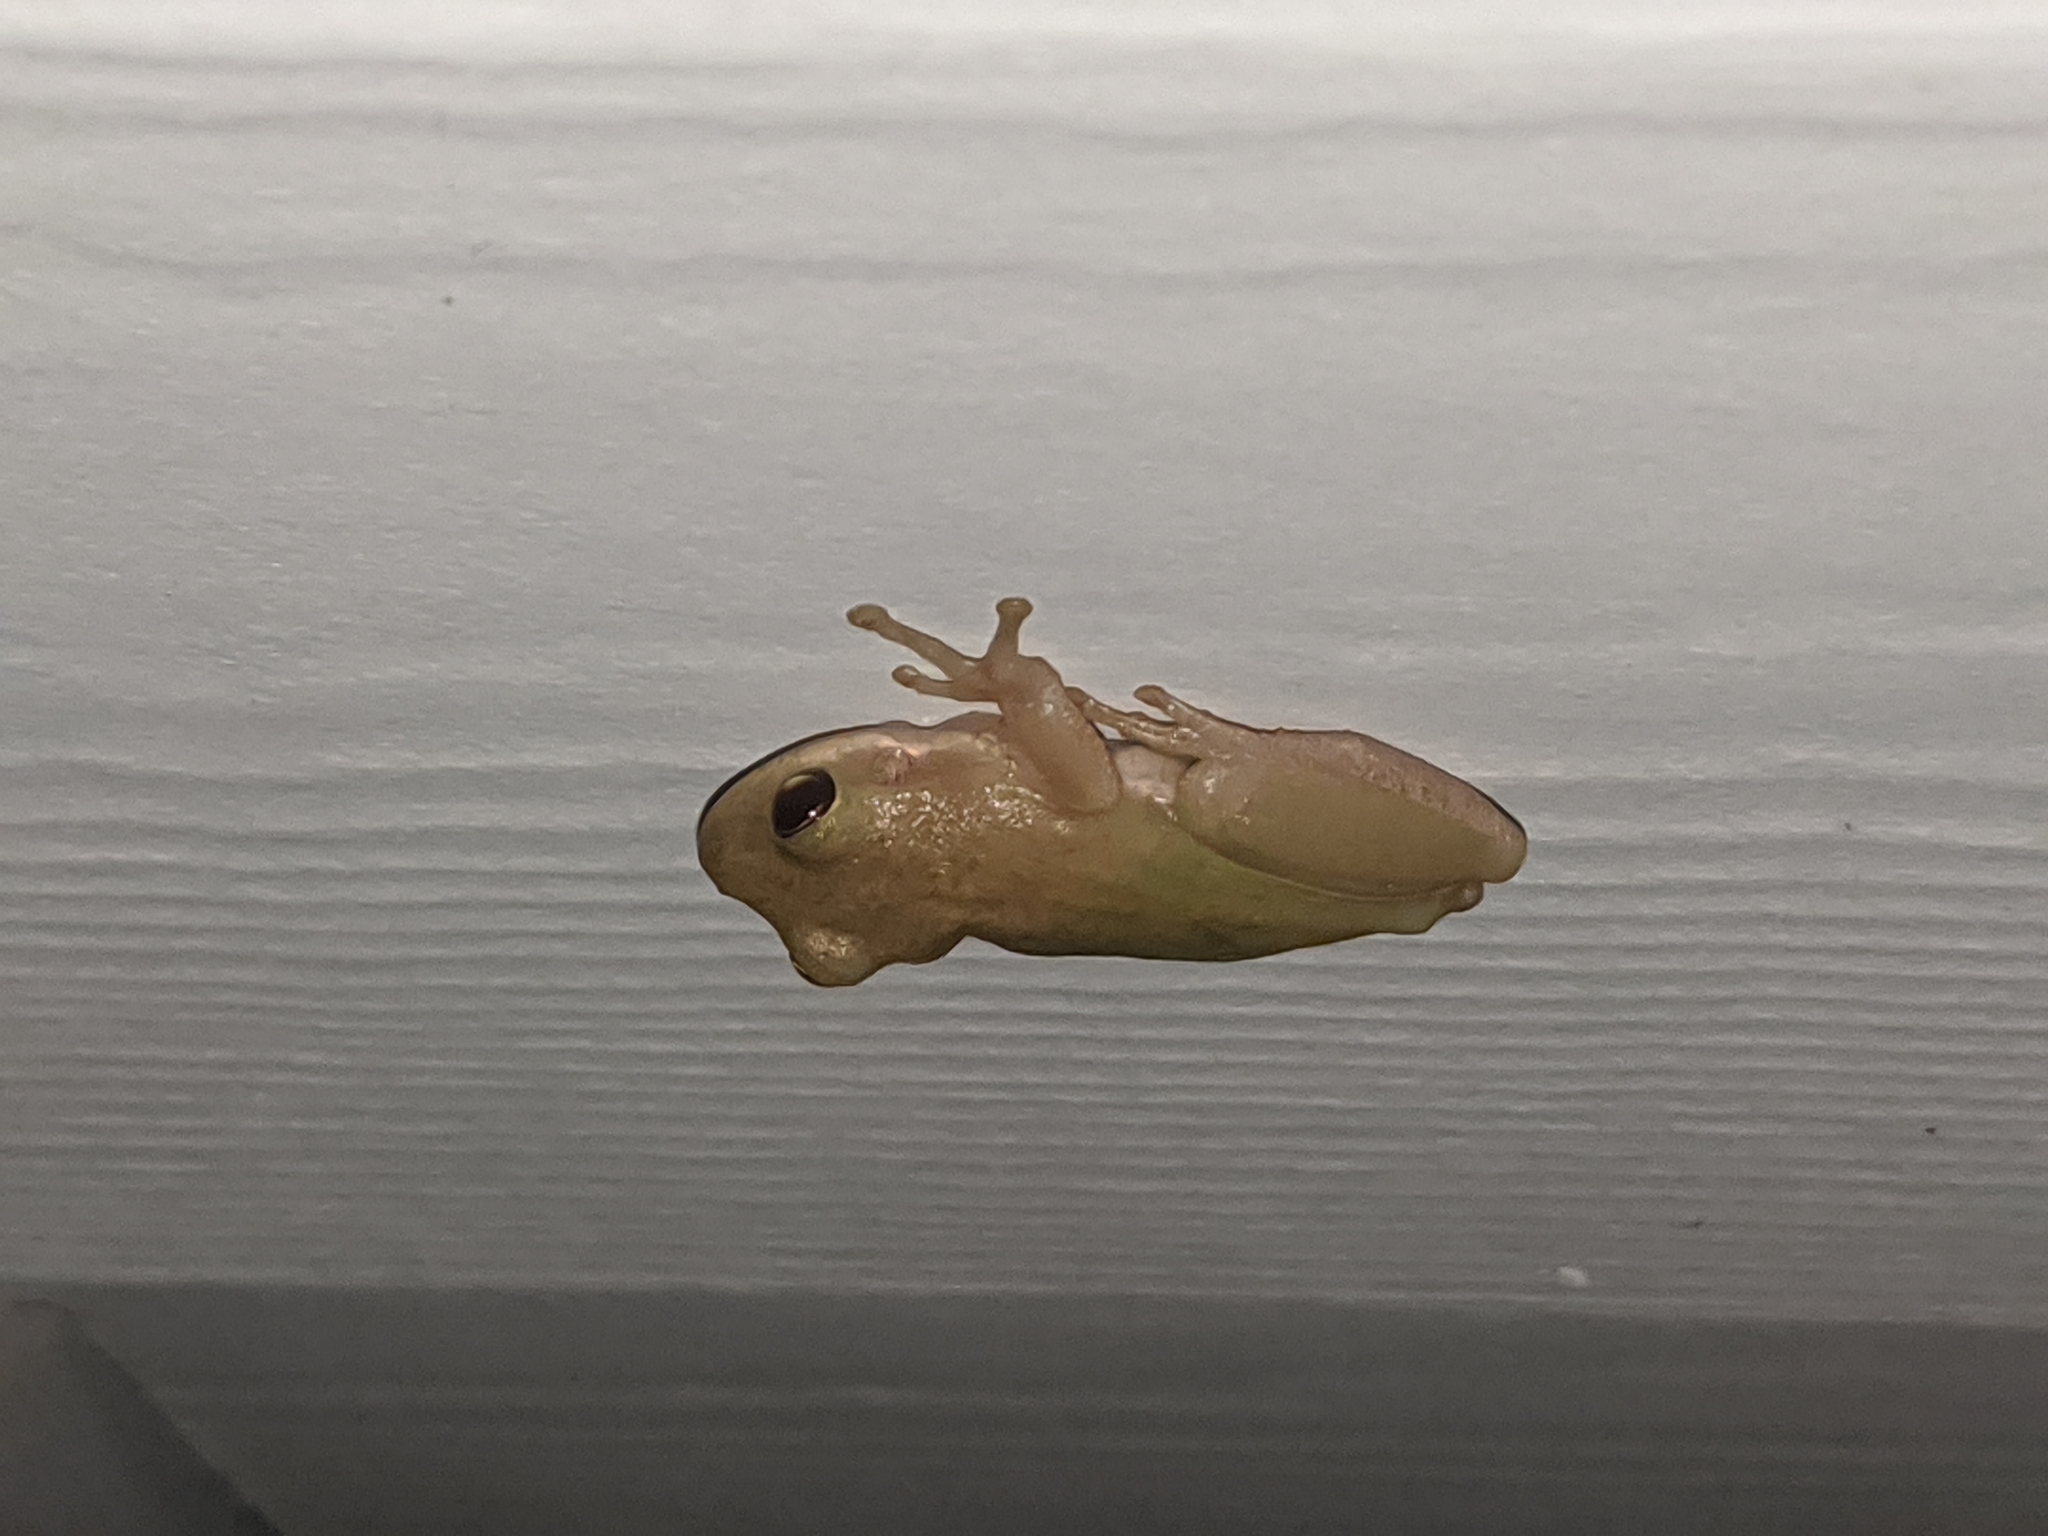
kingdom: Animalia
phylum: Chordata
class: Amphibia
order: Anura
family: Hylidae
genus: Dryophytes
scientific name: Dryophytes squirellus
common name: Squirrel treefrog
